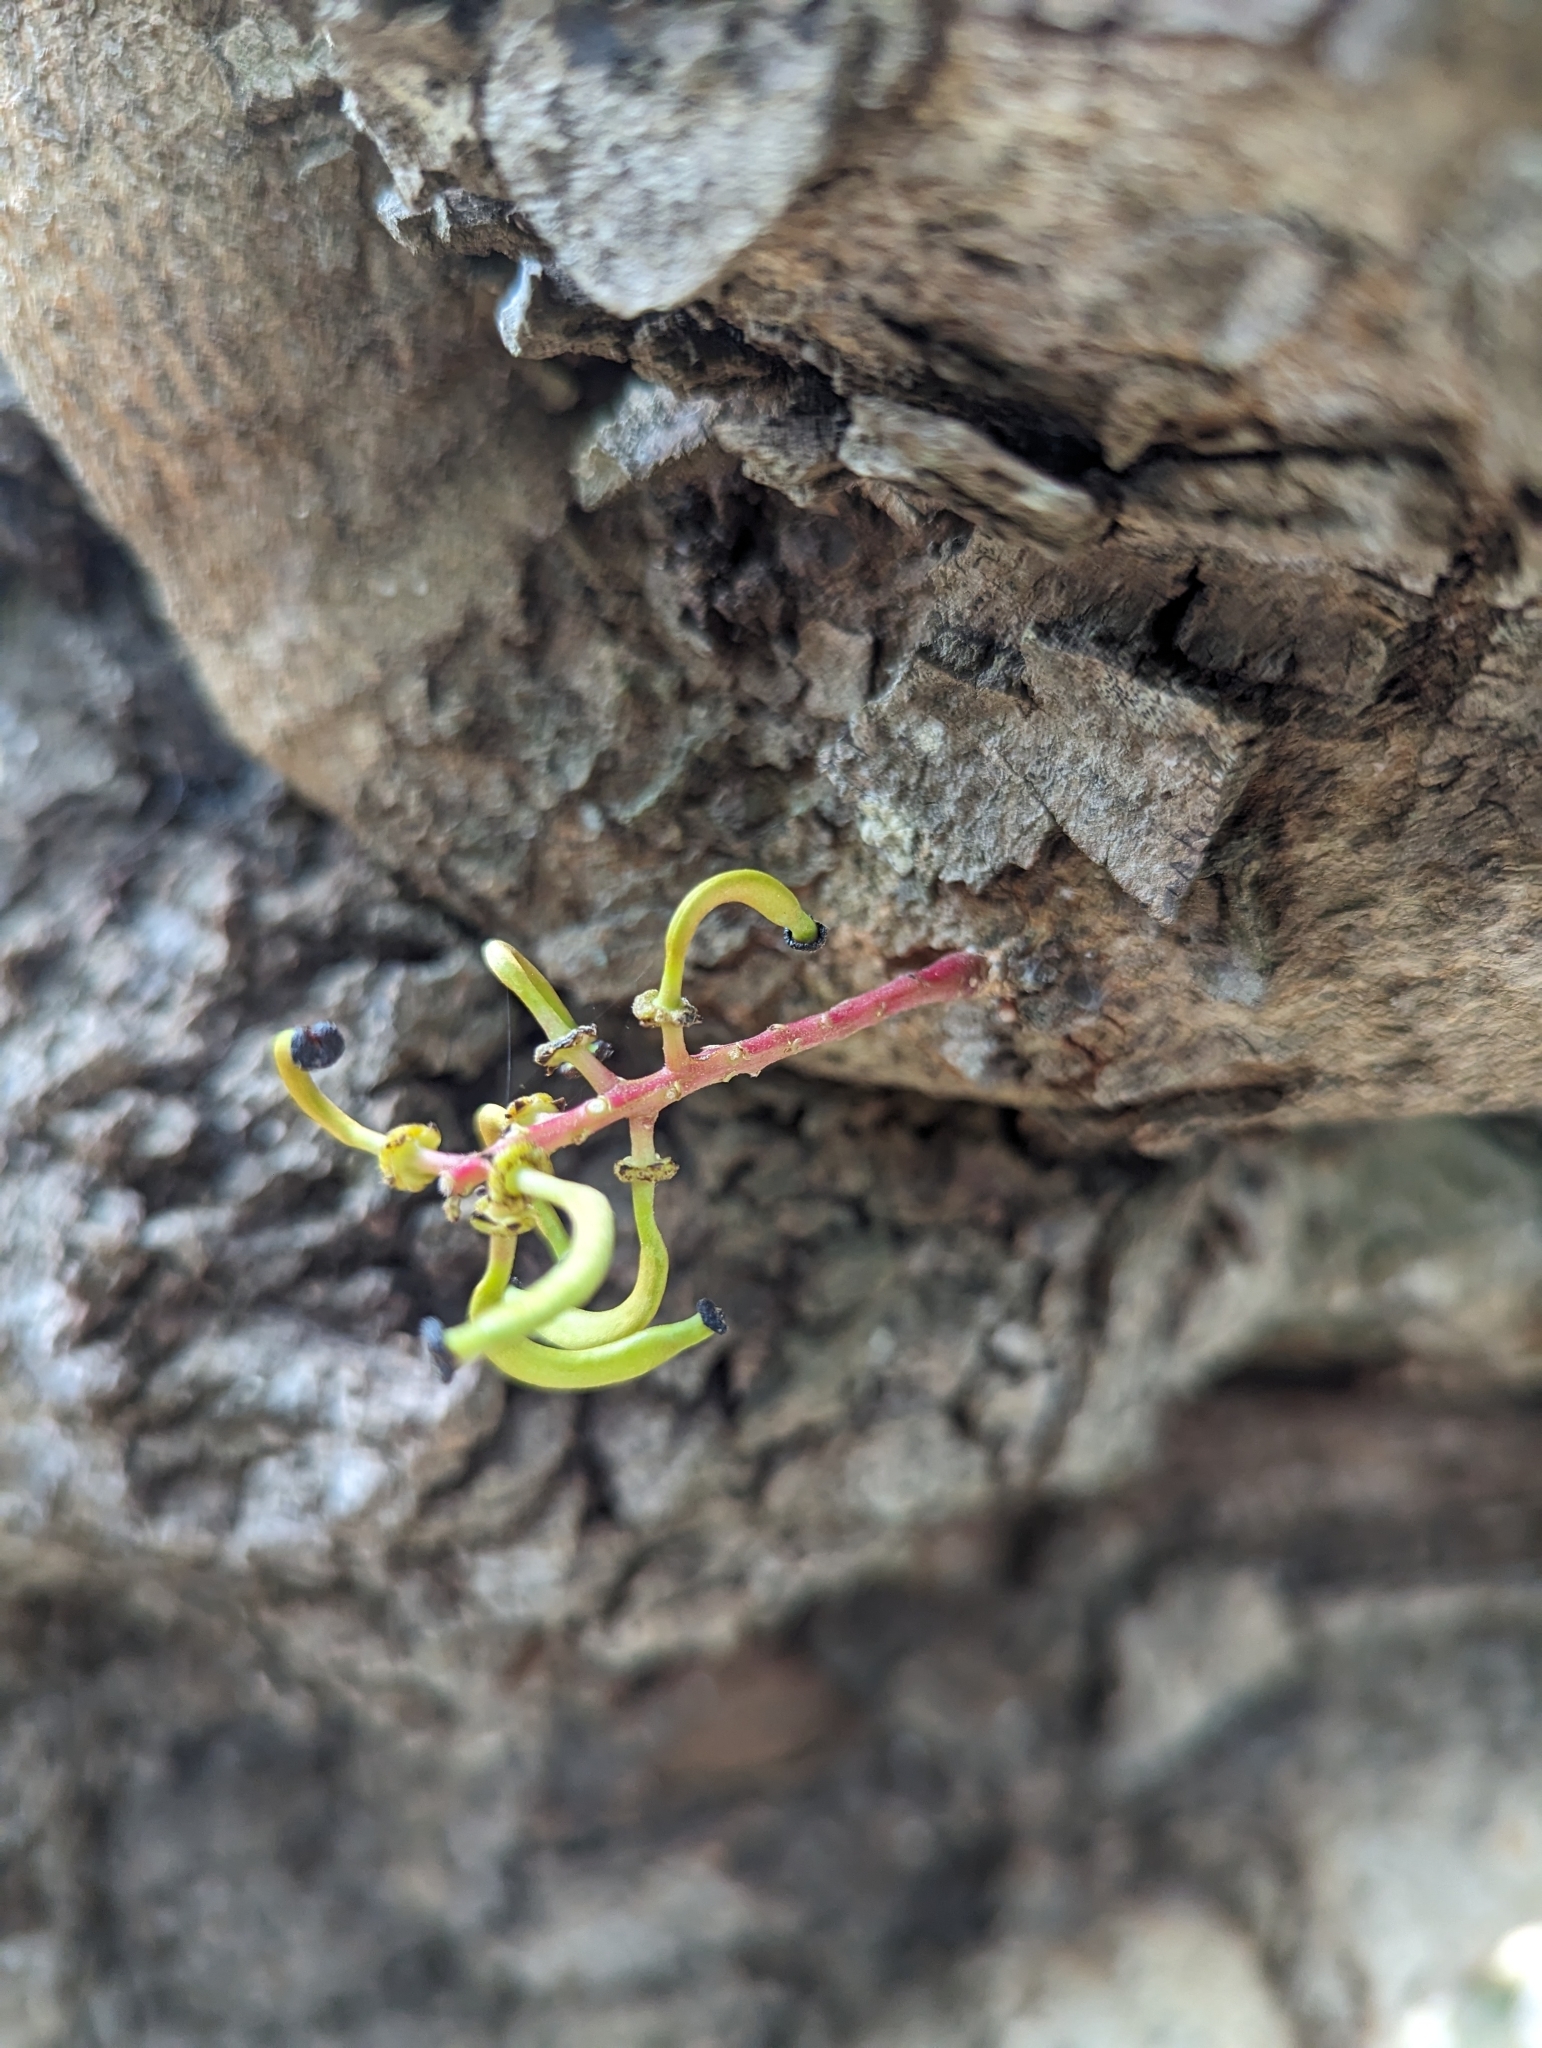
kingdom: Plantae
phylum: Tracheophyta
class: Magnoliopsida
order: Fabales
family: Fabaceae
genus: Ceratonia
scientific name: Ceratonia siliqua
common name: Carob
